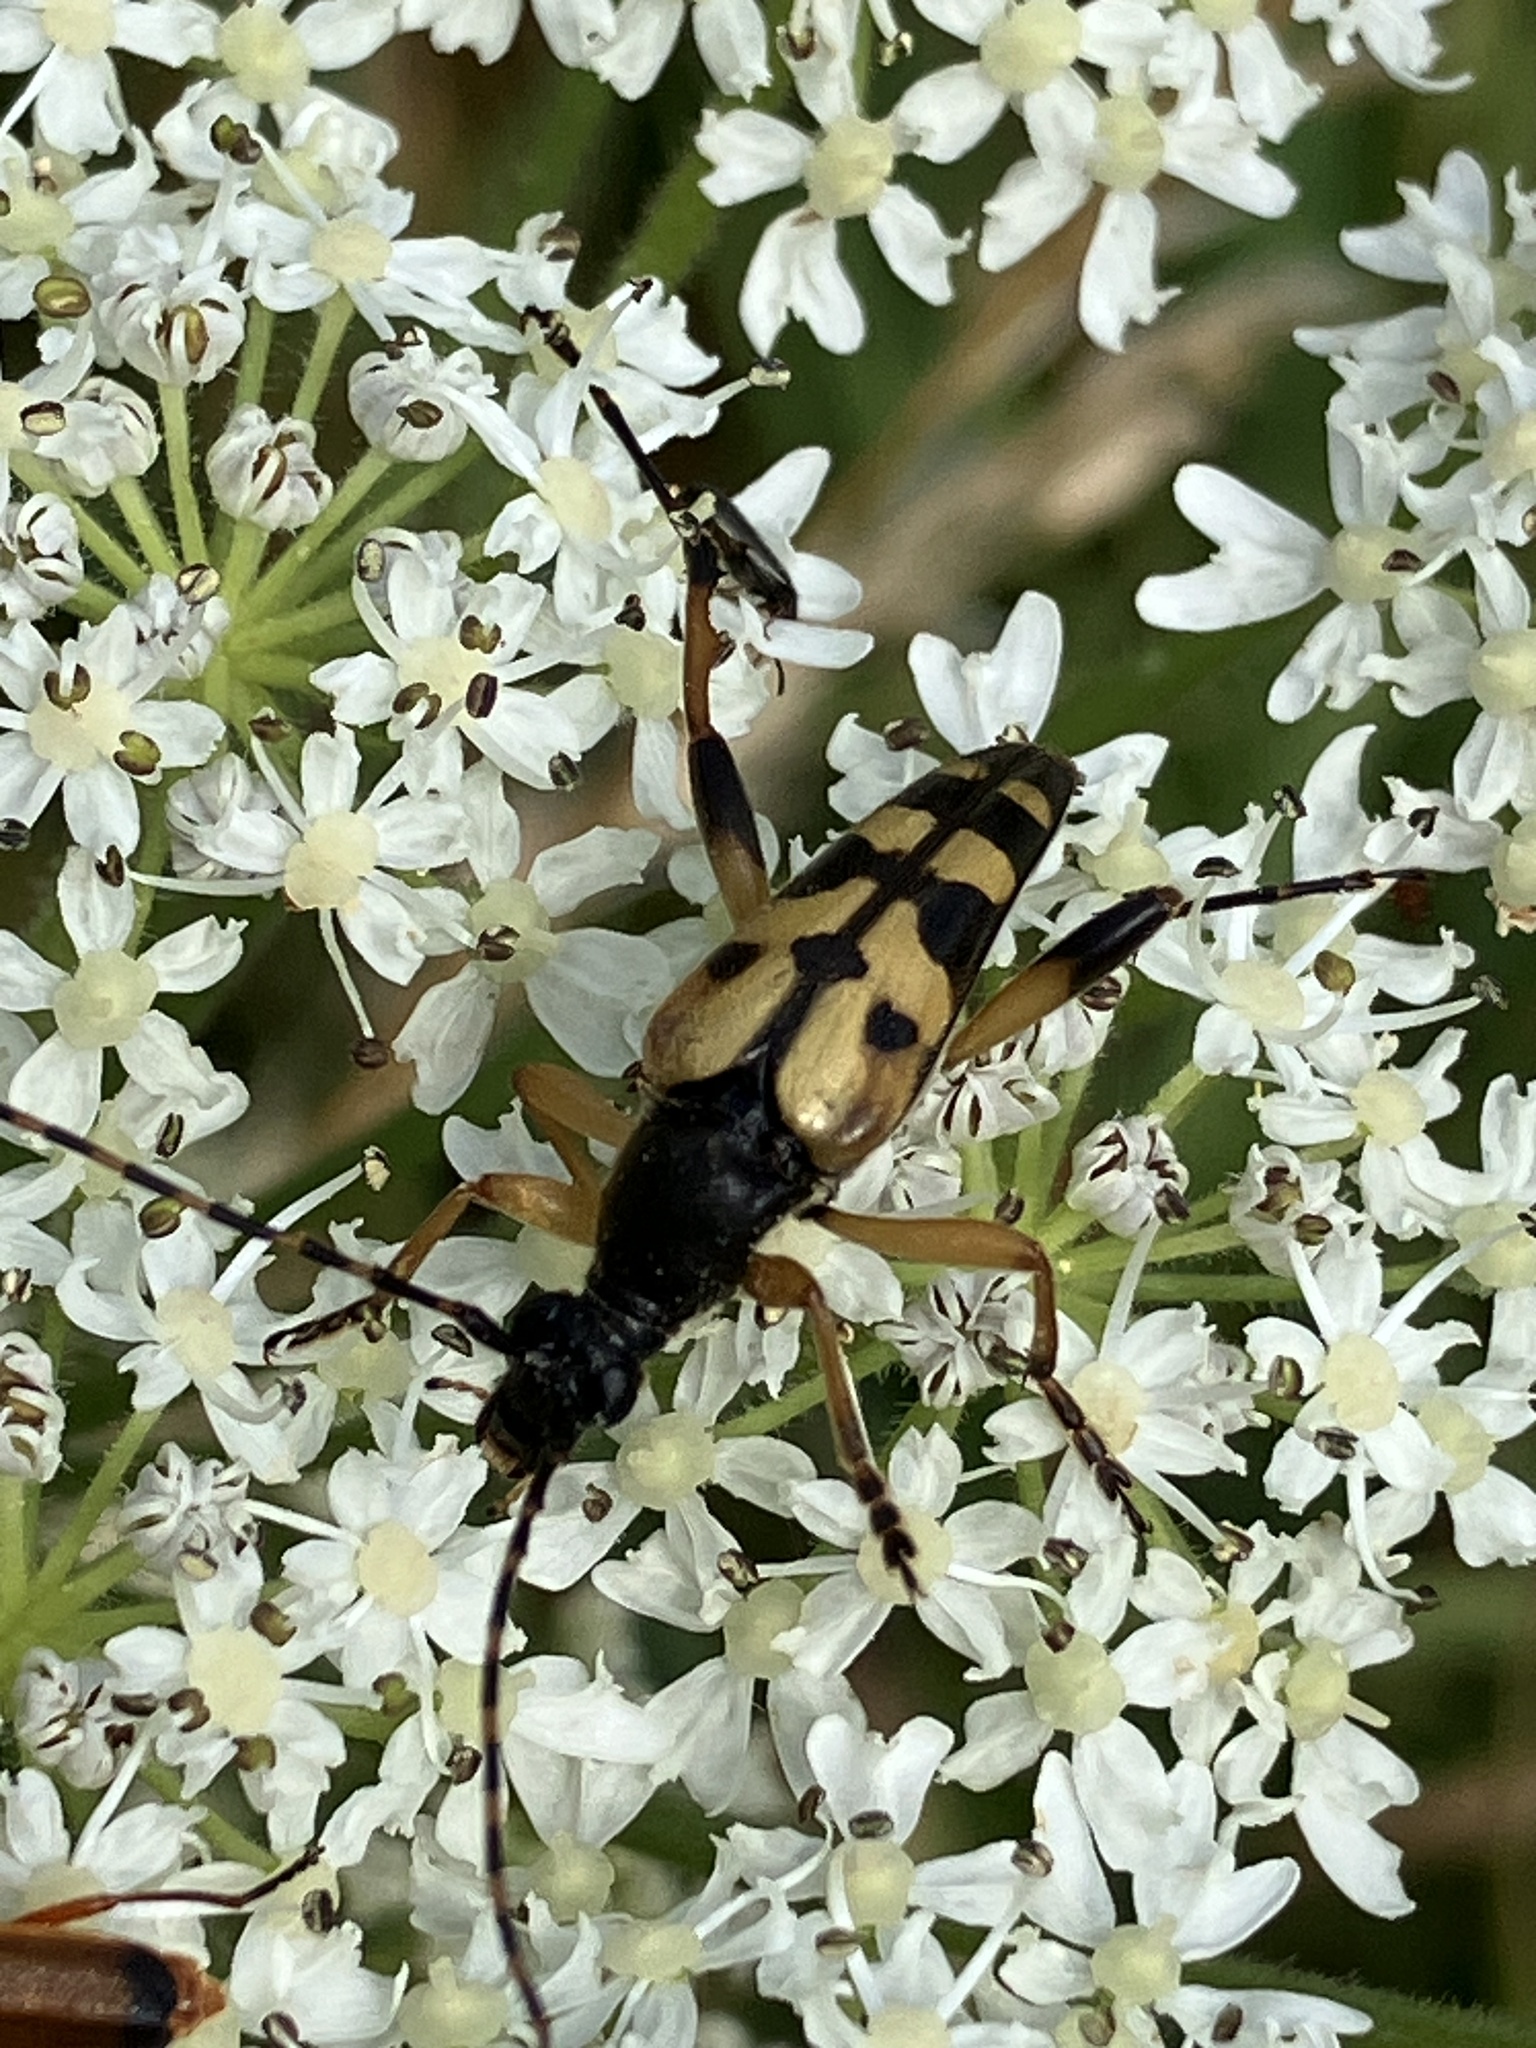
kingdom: Animalia
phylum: Arthropoda
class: Insecta
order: Coleoptera
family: Cerambycidae
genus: Rutpela
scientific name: Rutpela maculata
